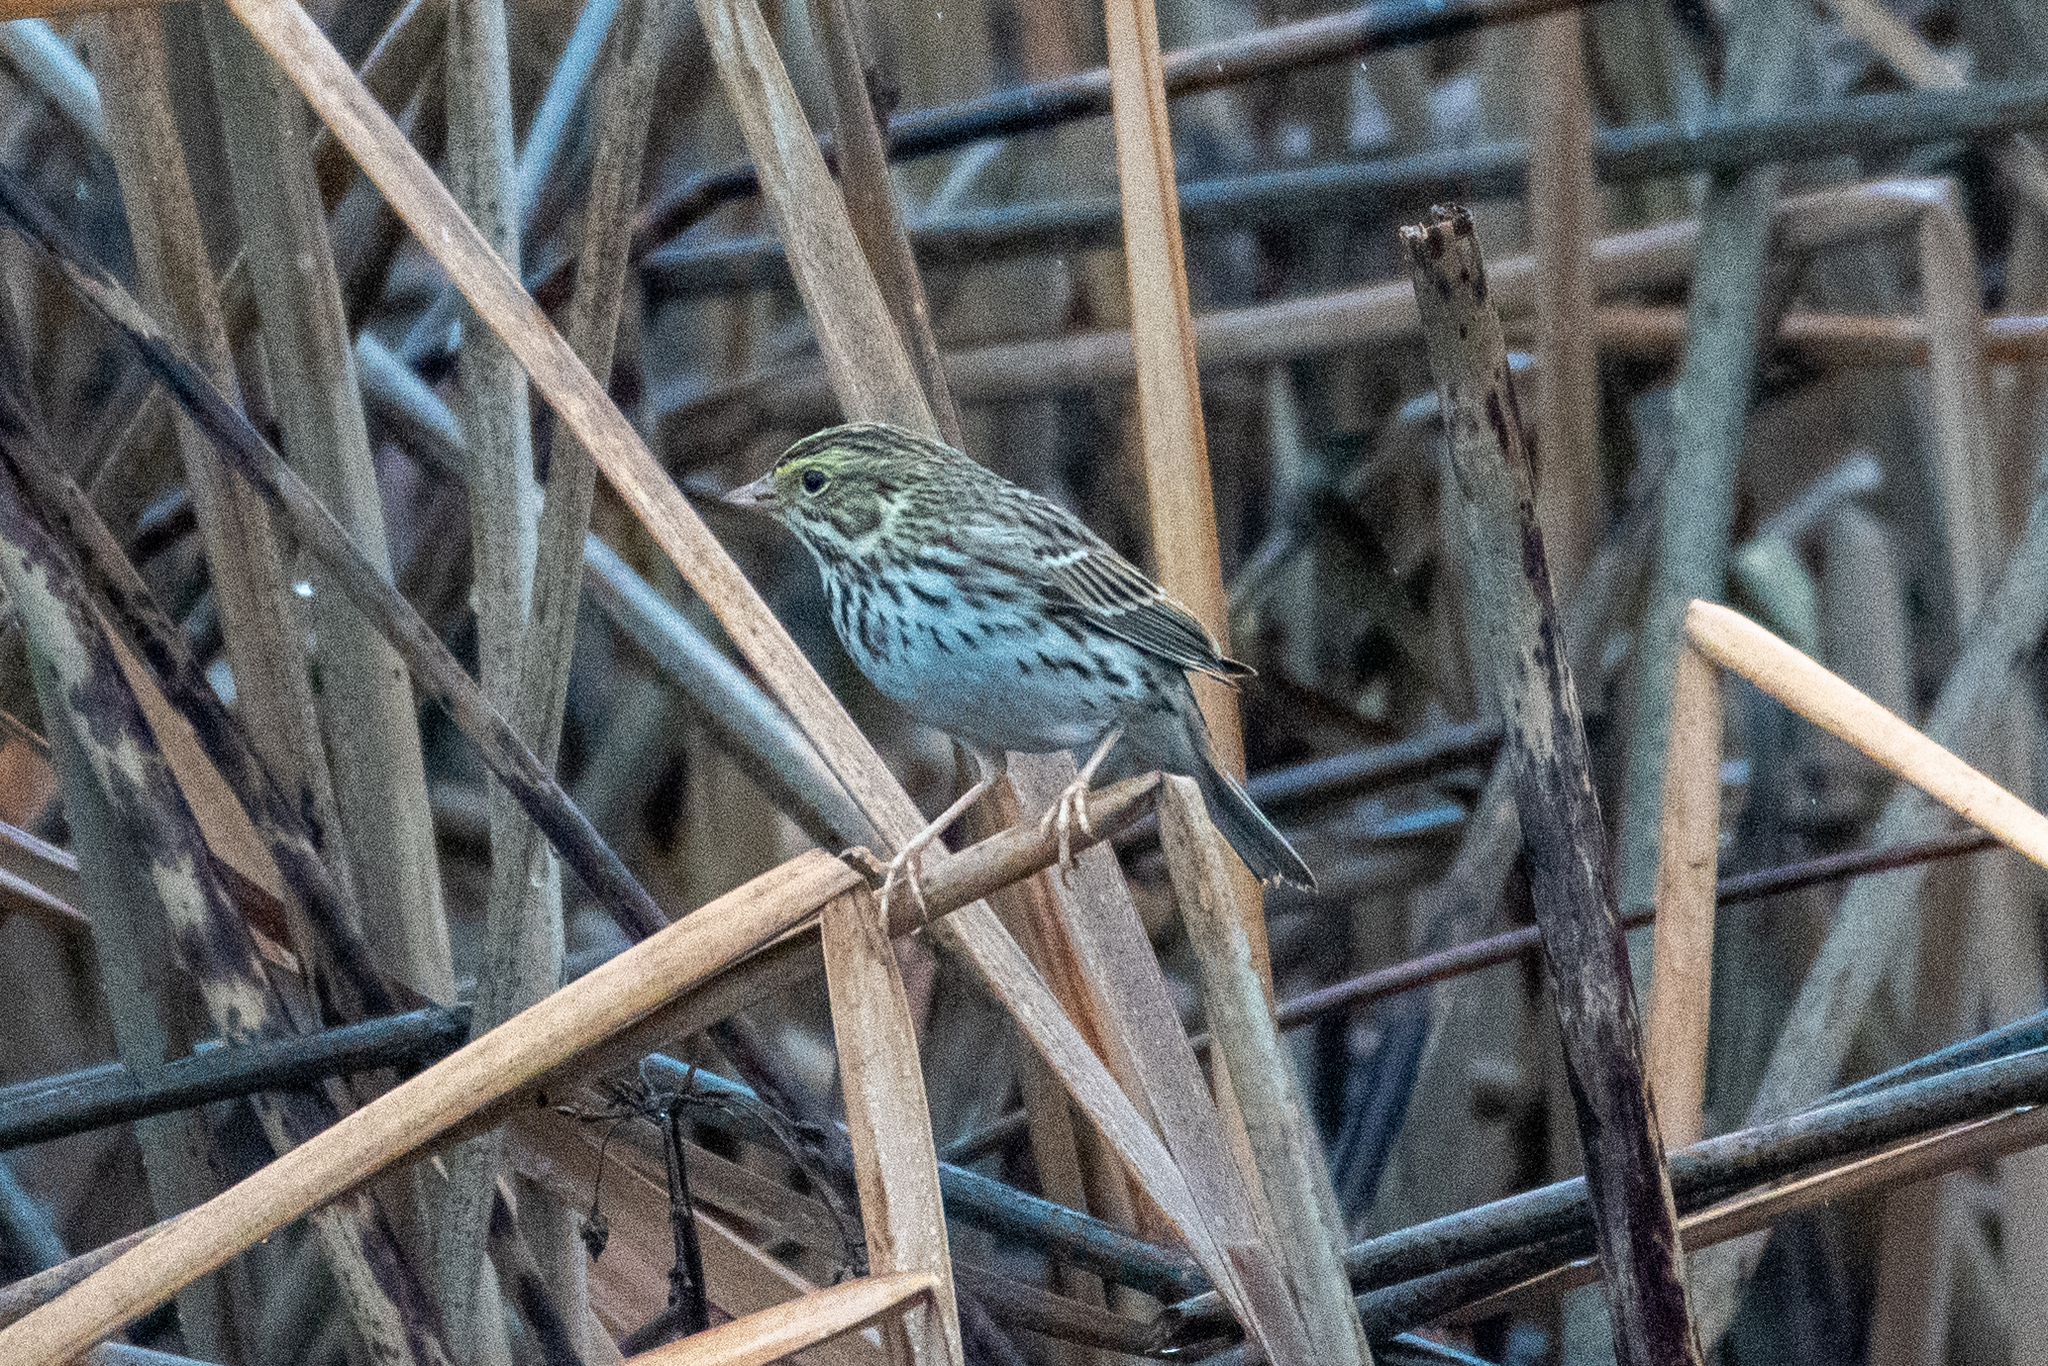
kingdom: Animalia
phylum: Chordata
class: Aves
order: Passeriformes
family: Passerellidae
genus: Passerculus
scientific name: Passerculus sandwichensis
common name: Savannah sparrow
